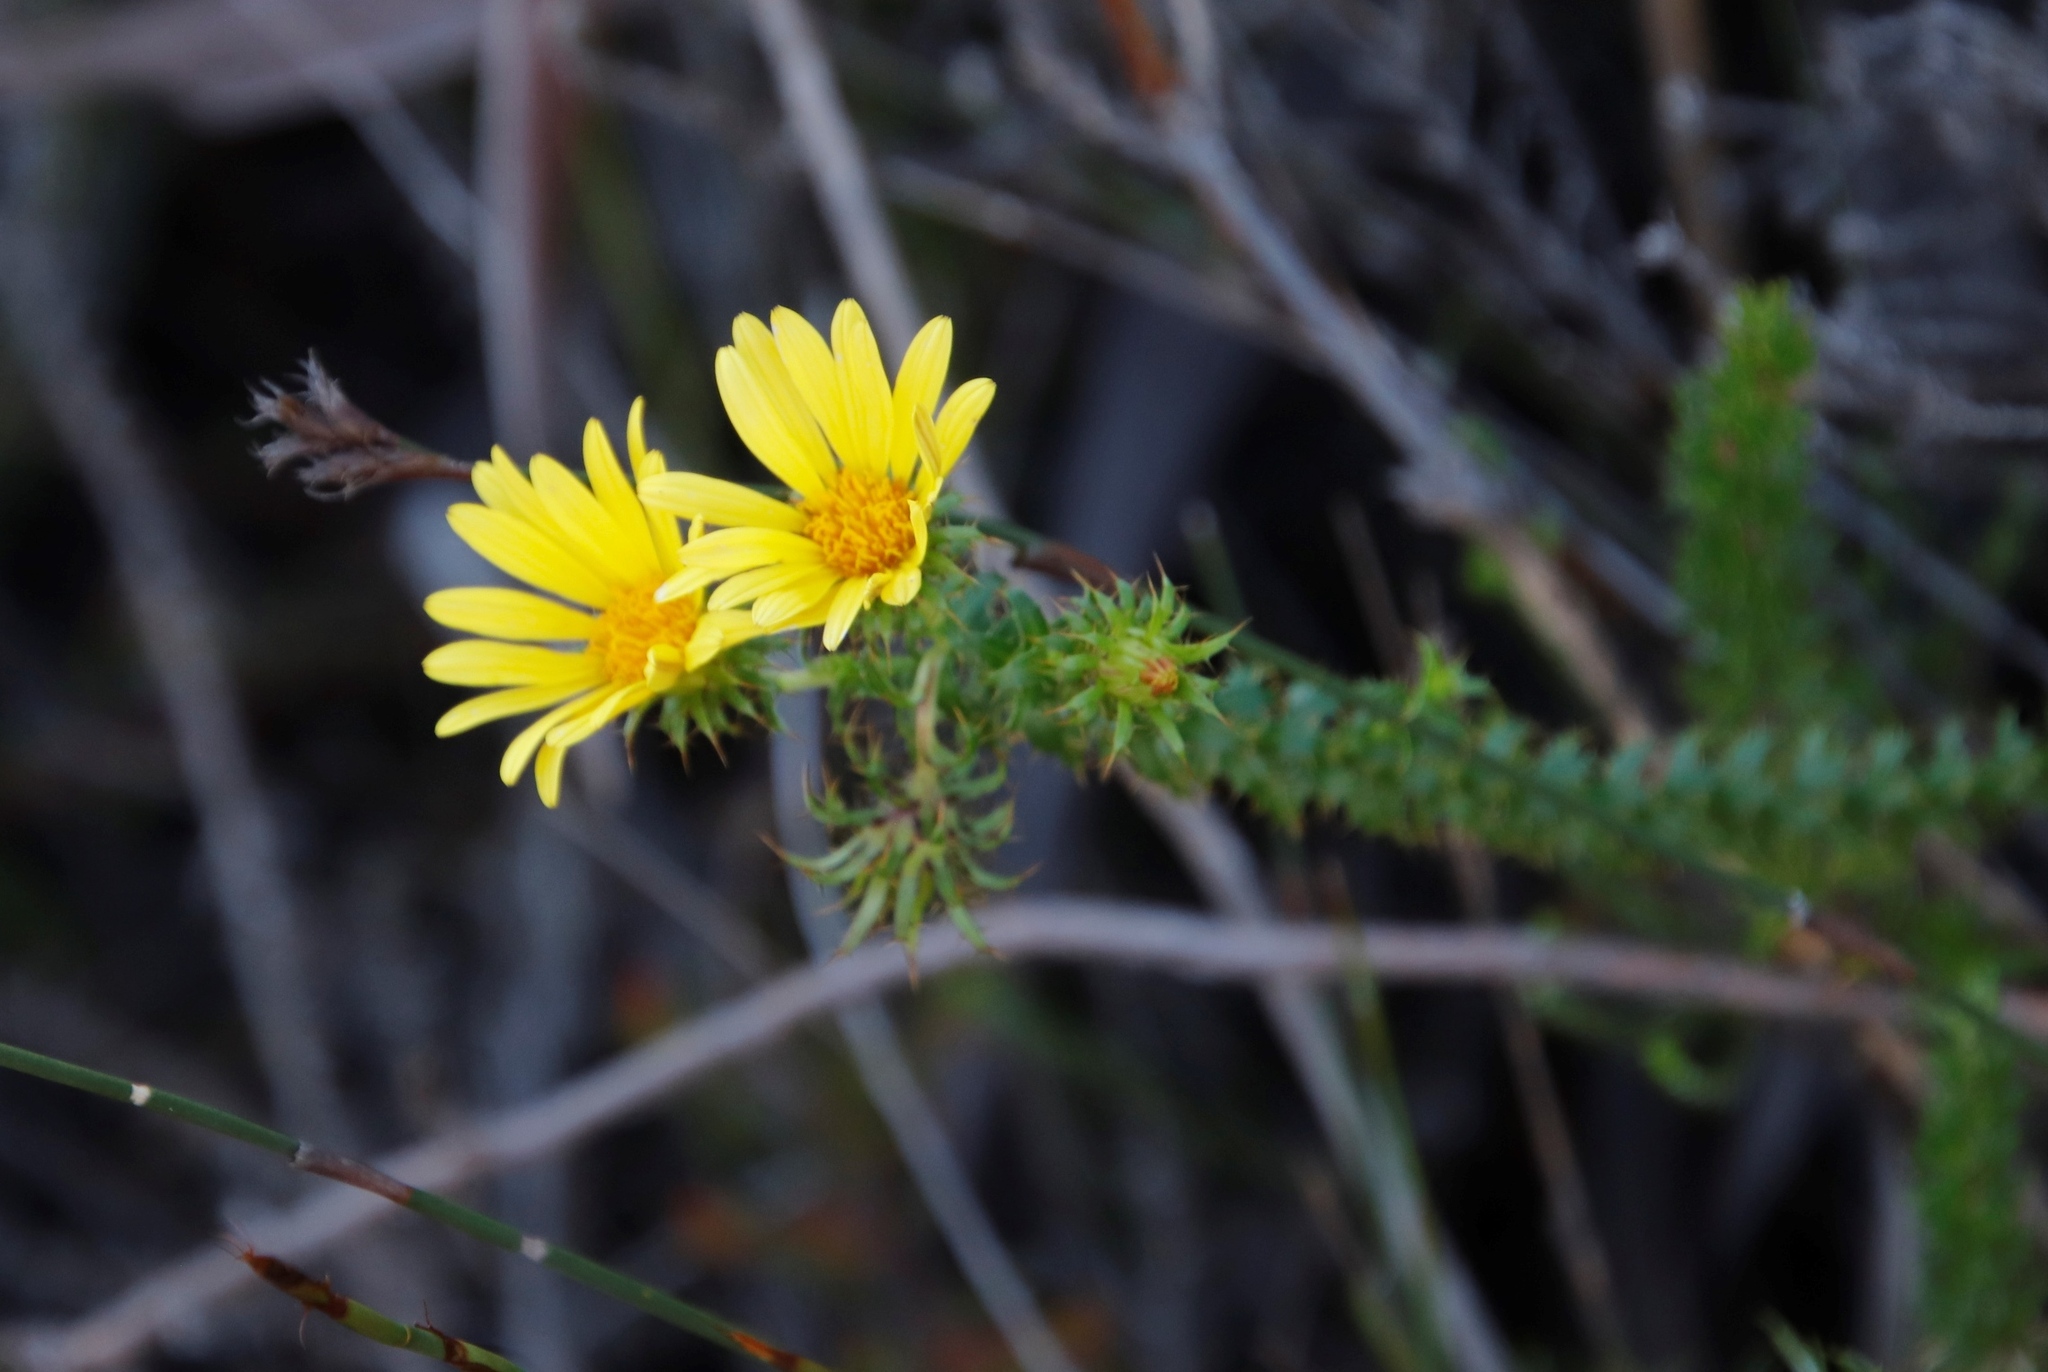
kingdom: Plantae
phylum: Tracheophyta
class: Magnoliopsida
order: Asterales
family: Asteraceae
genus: Cullumia
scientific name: Cullumia setosa
